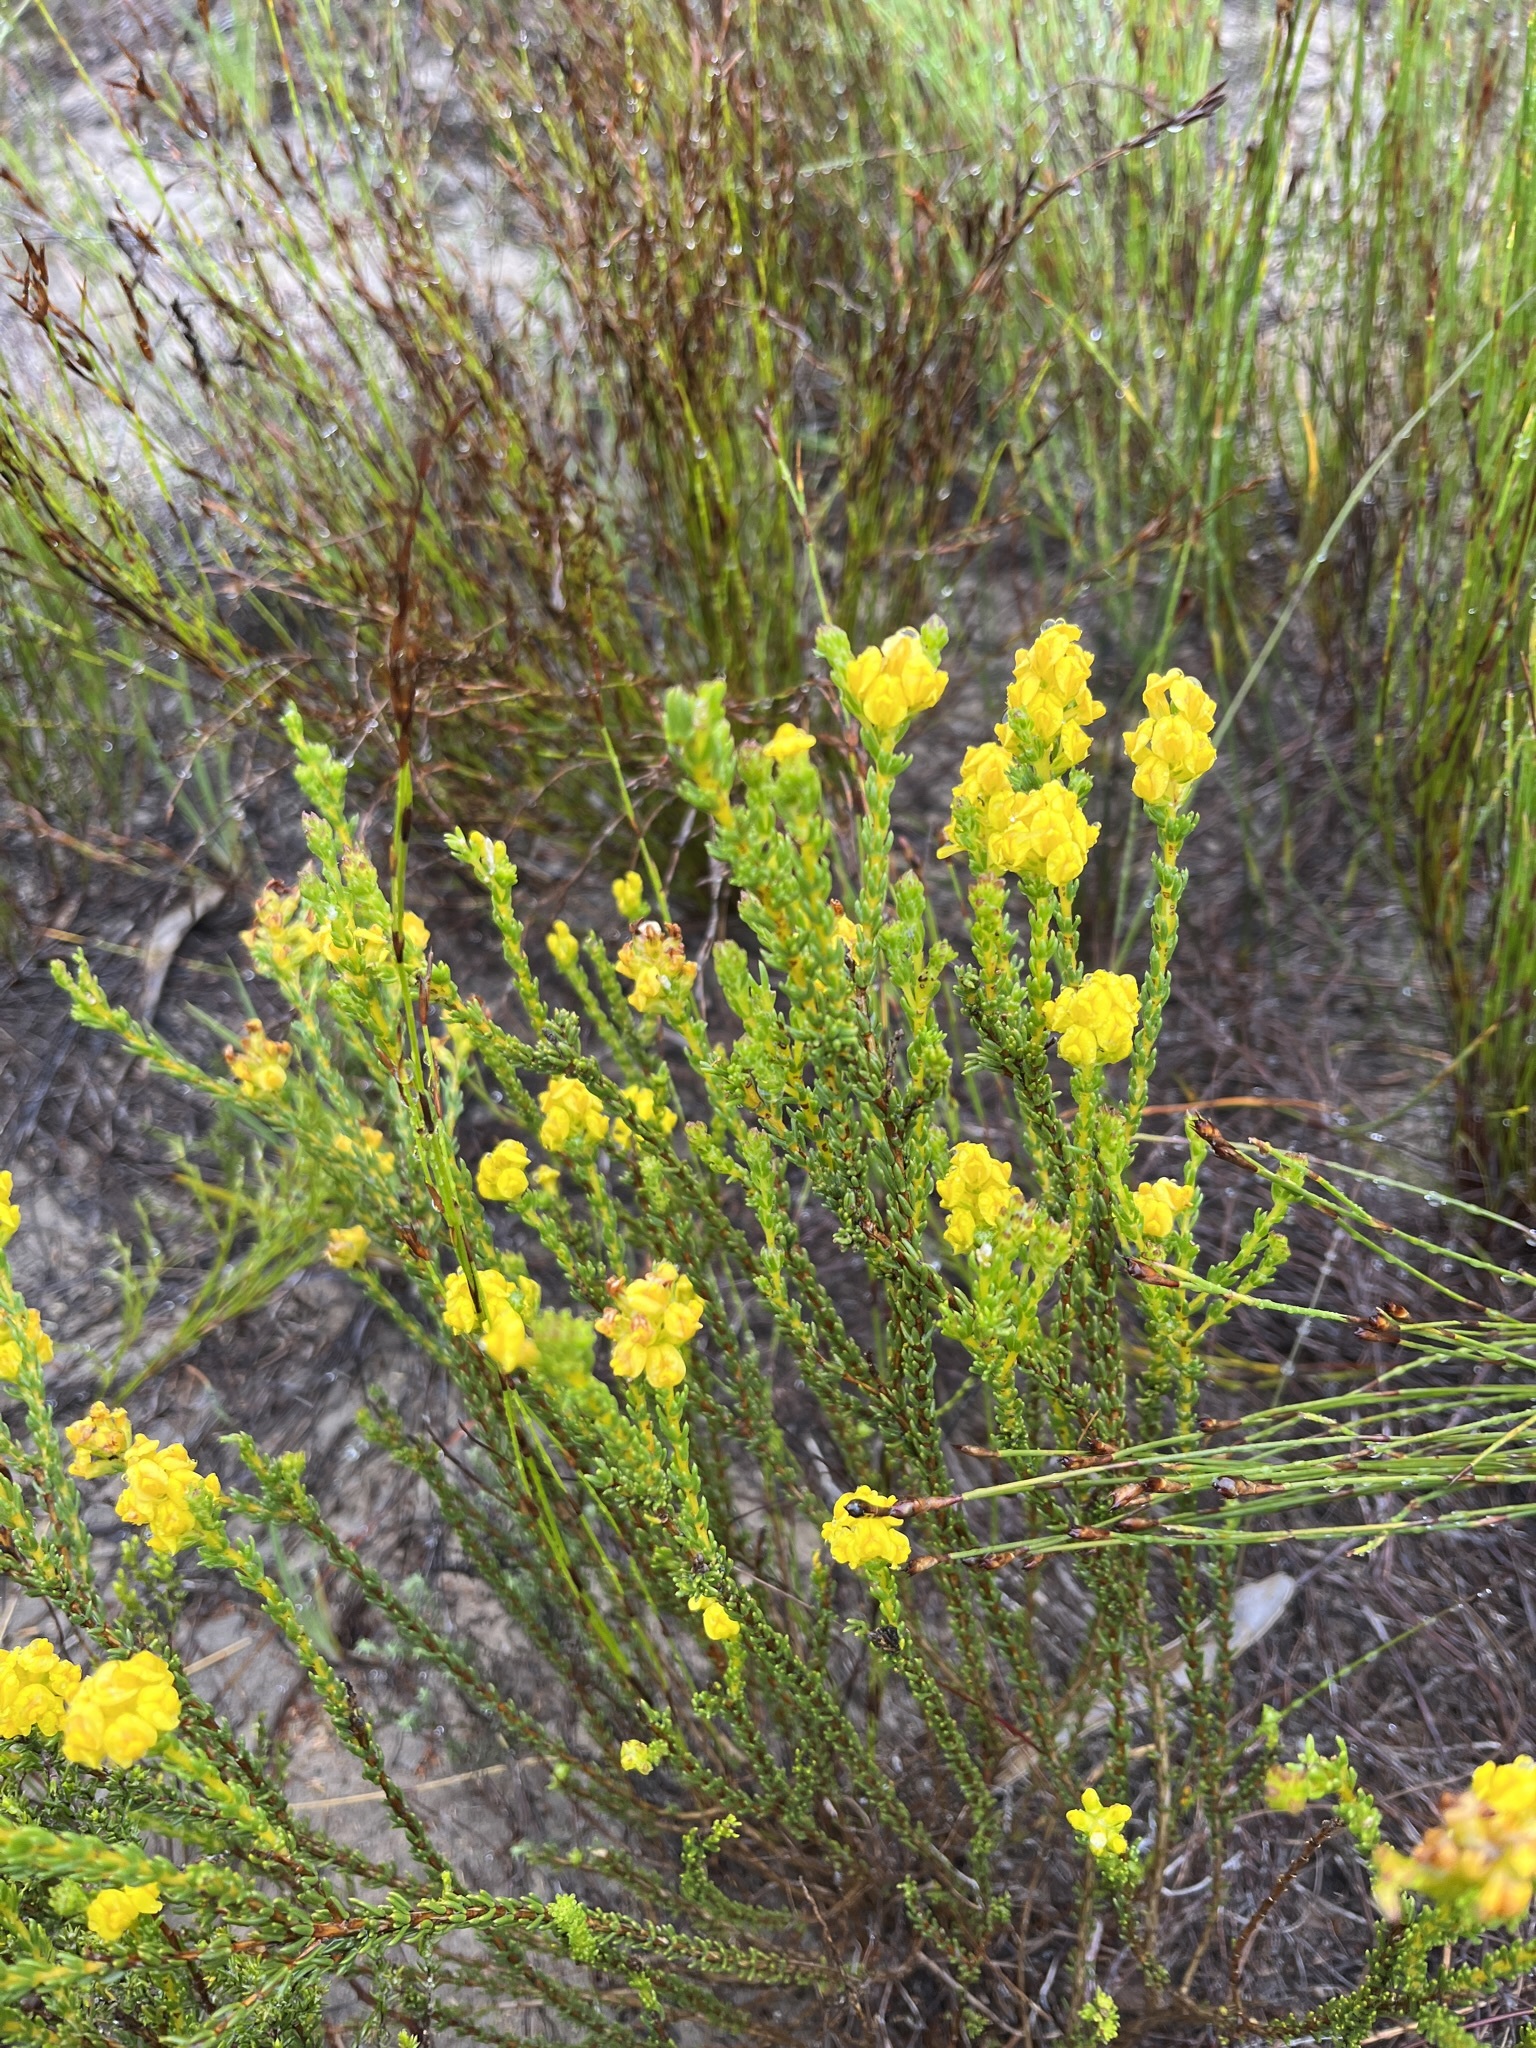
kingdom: Plantae
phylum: Tracheophyta
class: Magnoliopsida
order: Fabales
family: Fabaceae
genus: Aspalathus
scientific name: Aspalathus callosa
